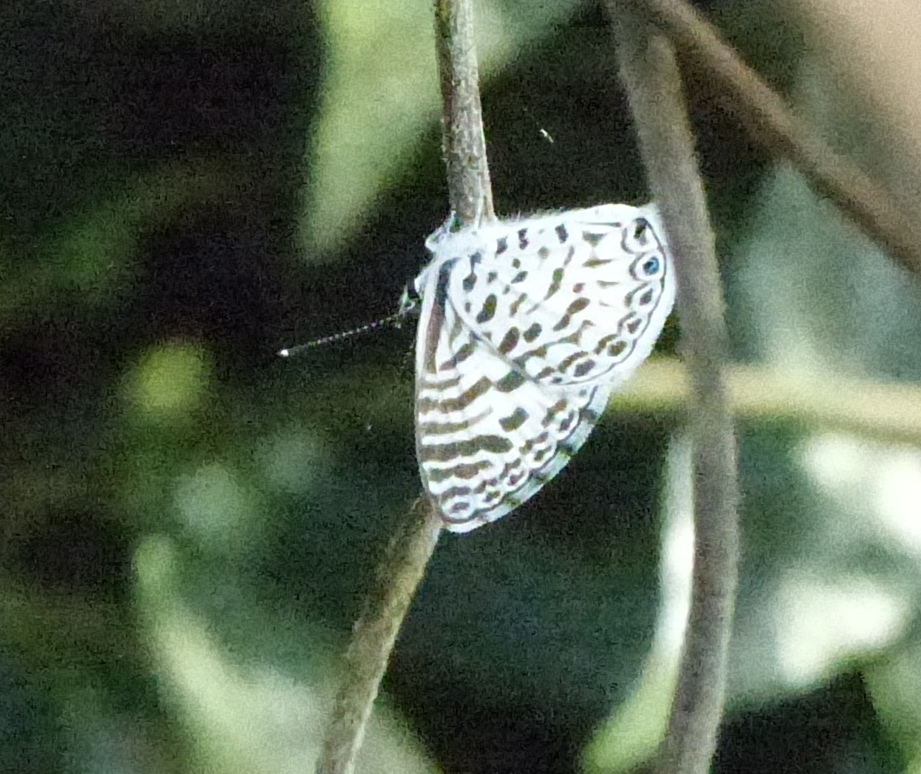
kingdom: Animalia
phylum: Arthropoda
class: Insecta
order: Lepidoptera
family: Lycaenidae
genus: Leptotes
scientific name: Leptotes cassius
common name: Cassius blue
